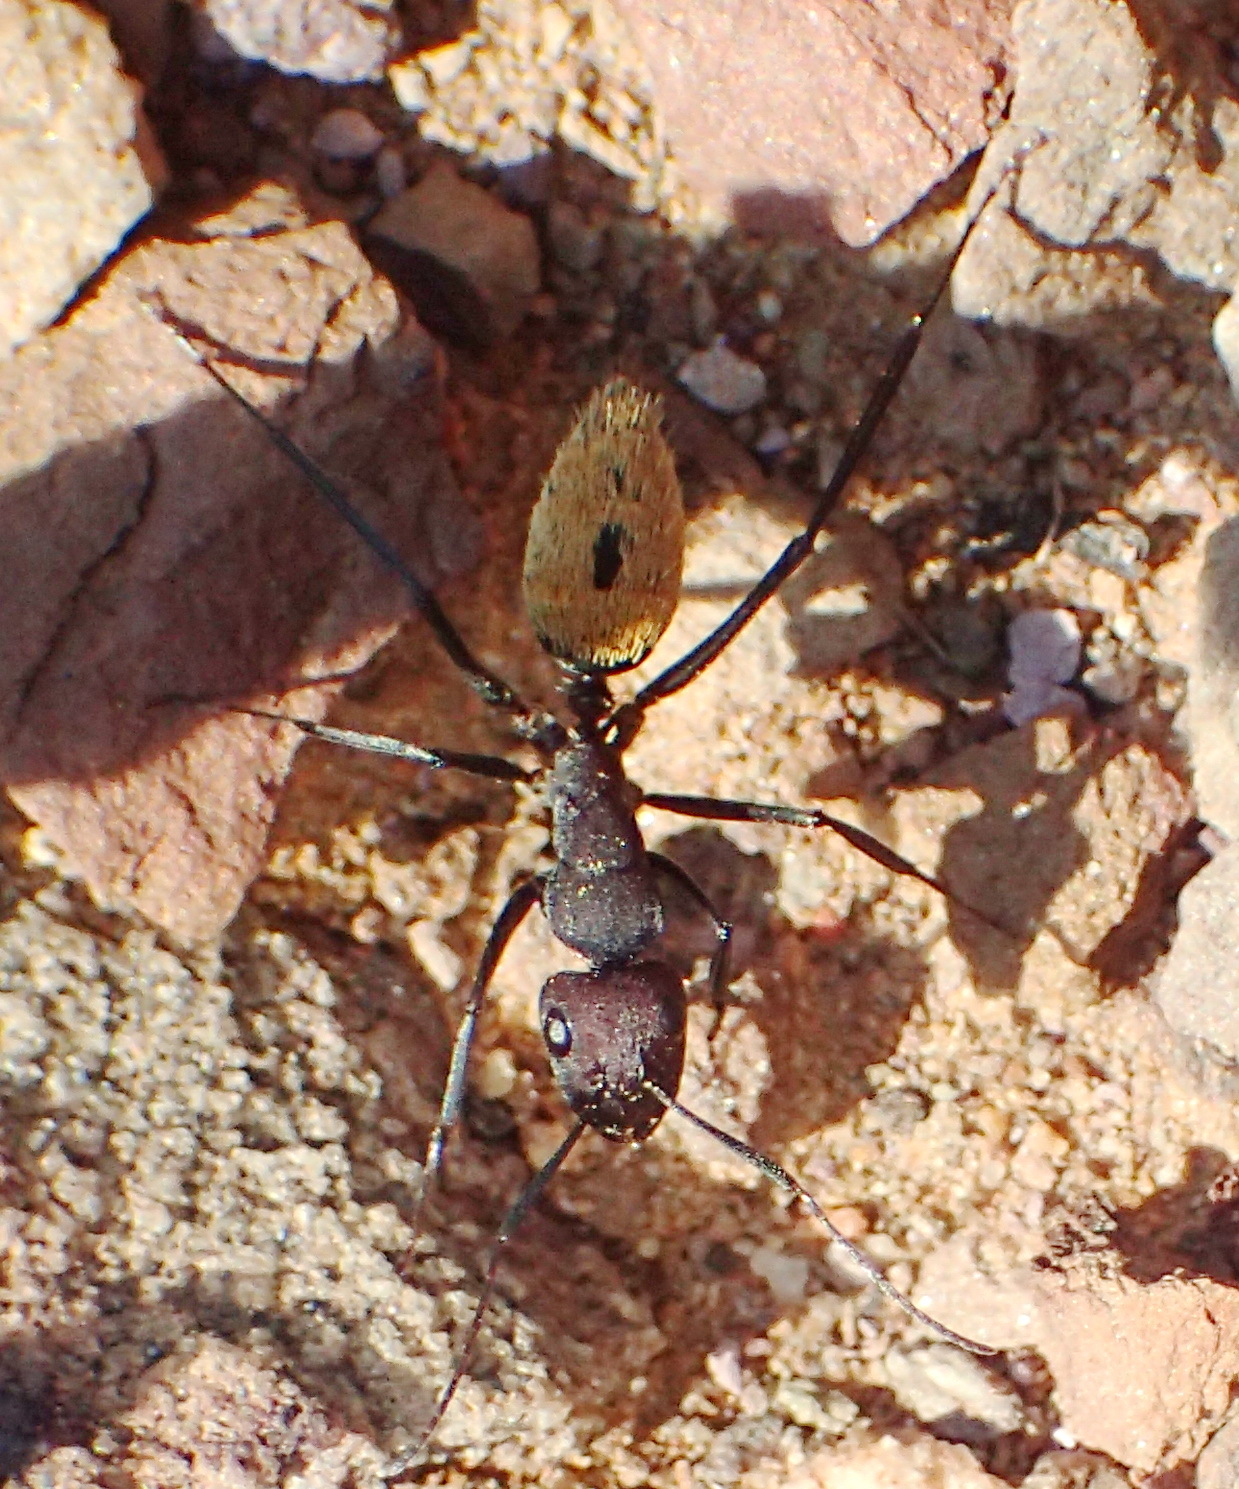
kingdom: Animalia
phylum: Arthropoda
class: Insecta
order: Hymenoptera
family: Formicidae
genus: Camponotus
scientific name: Camponotus fulvopilosus
